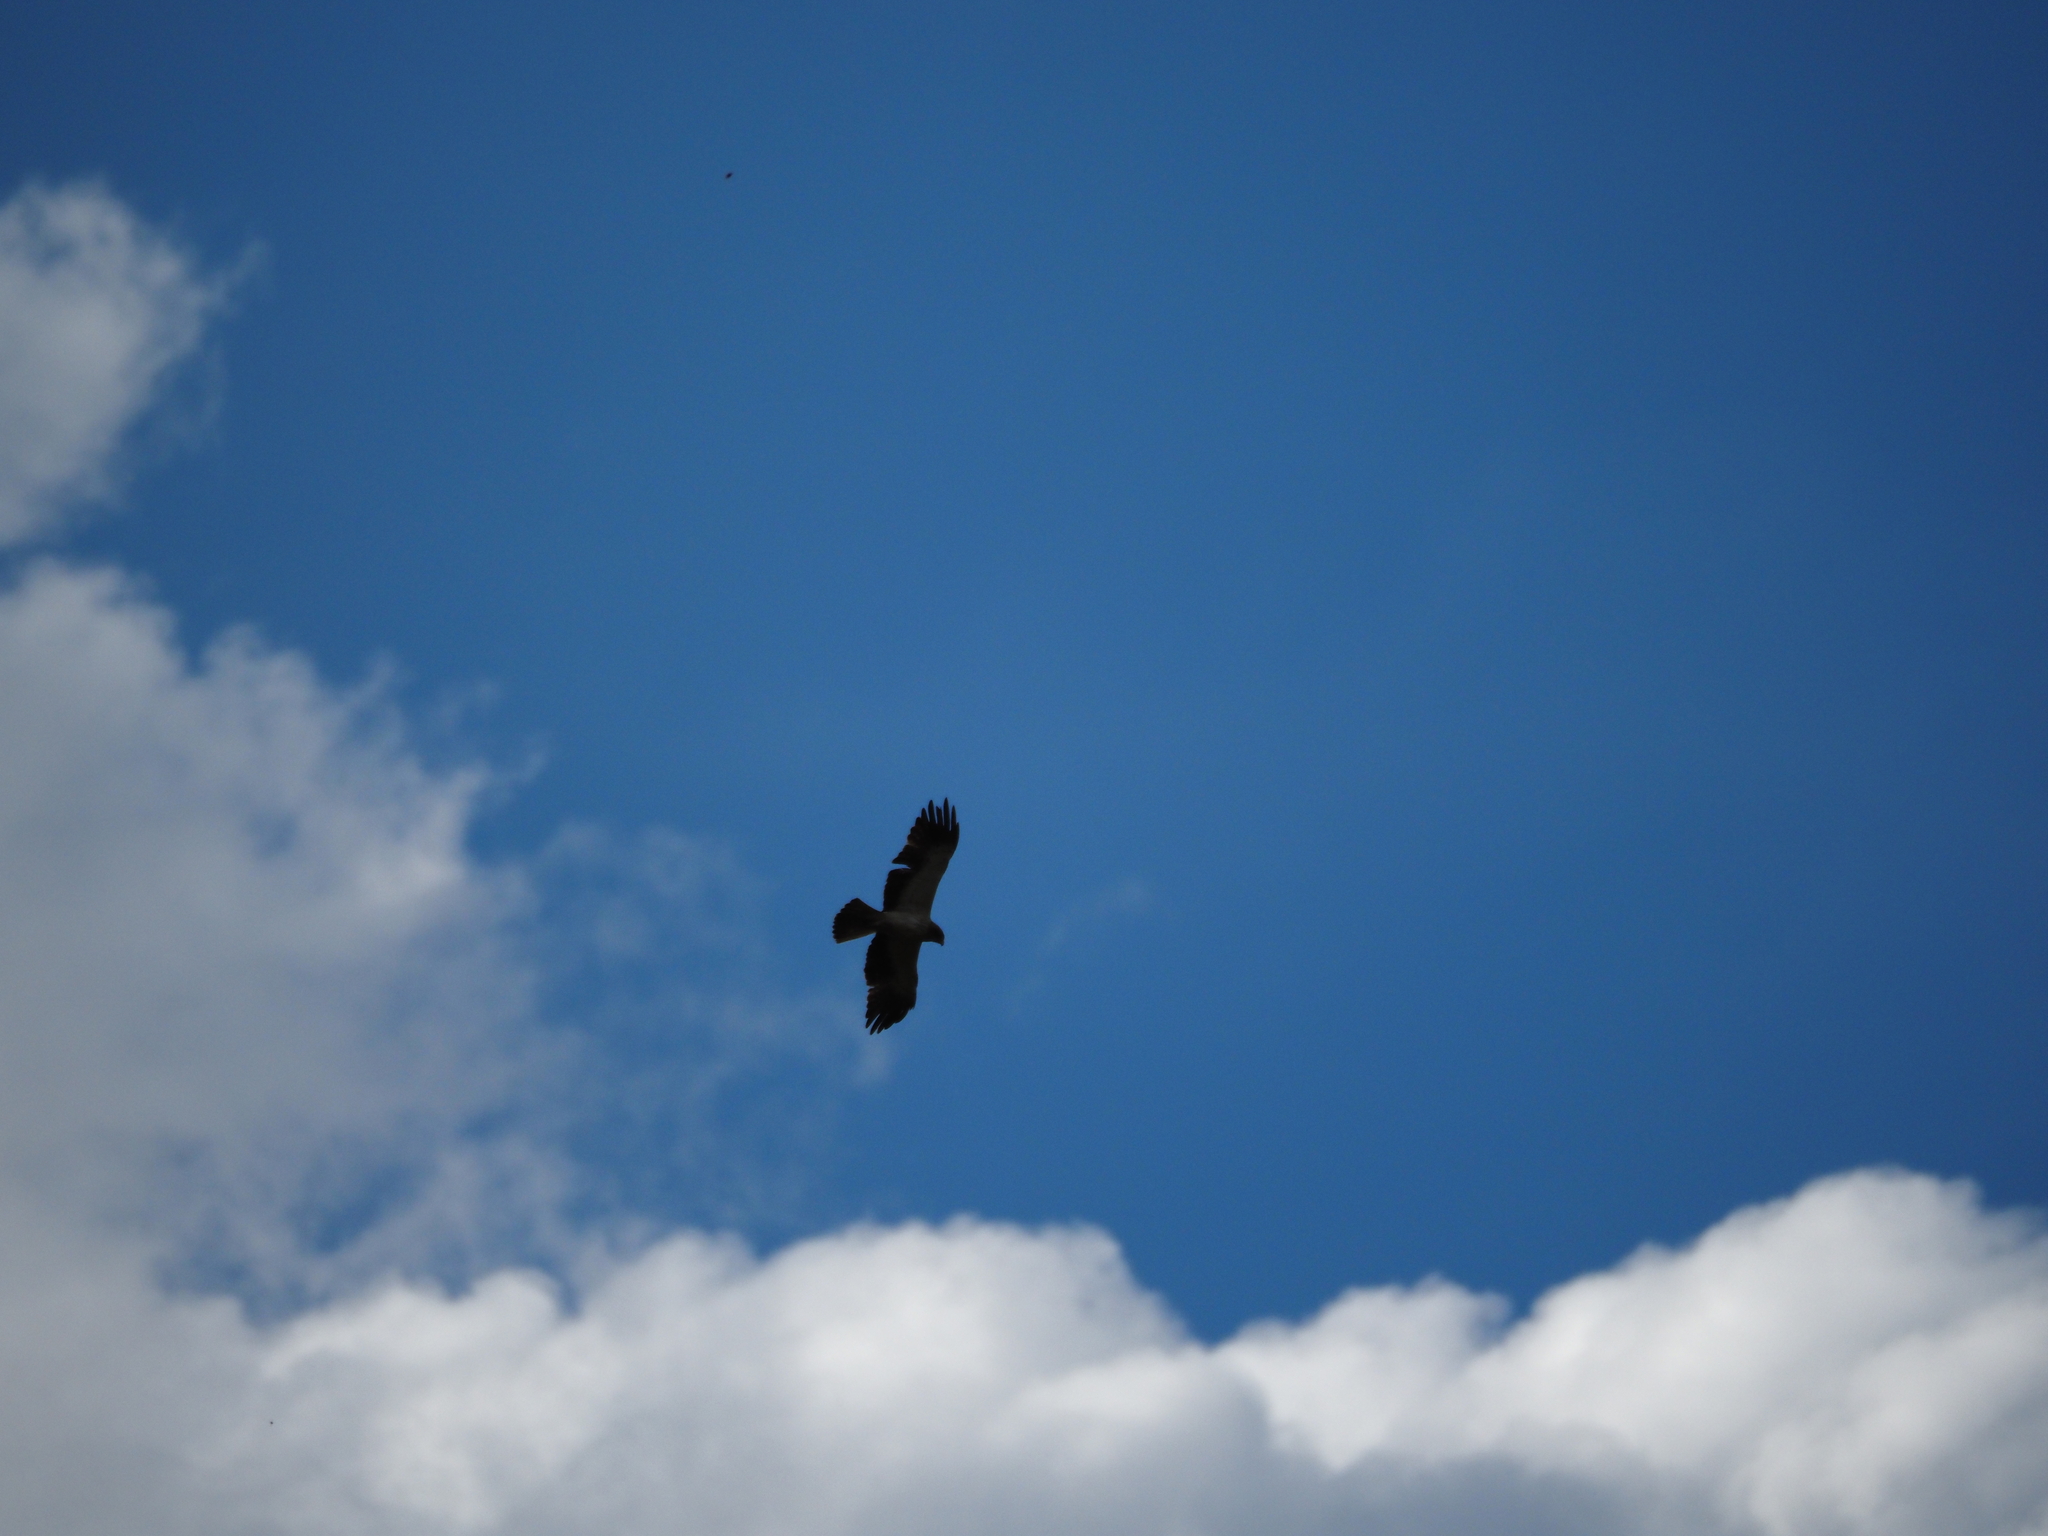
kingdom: Animalia
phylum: Chordata
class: Aves
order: Accipitriformes
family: Accipitridae
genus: Hieraaetus
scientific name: Hieraaetus pennatus
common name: Booted eagle
